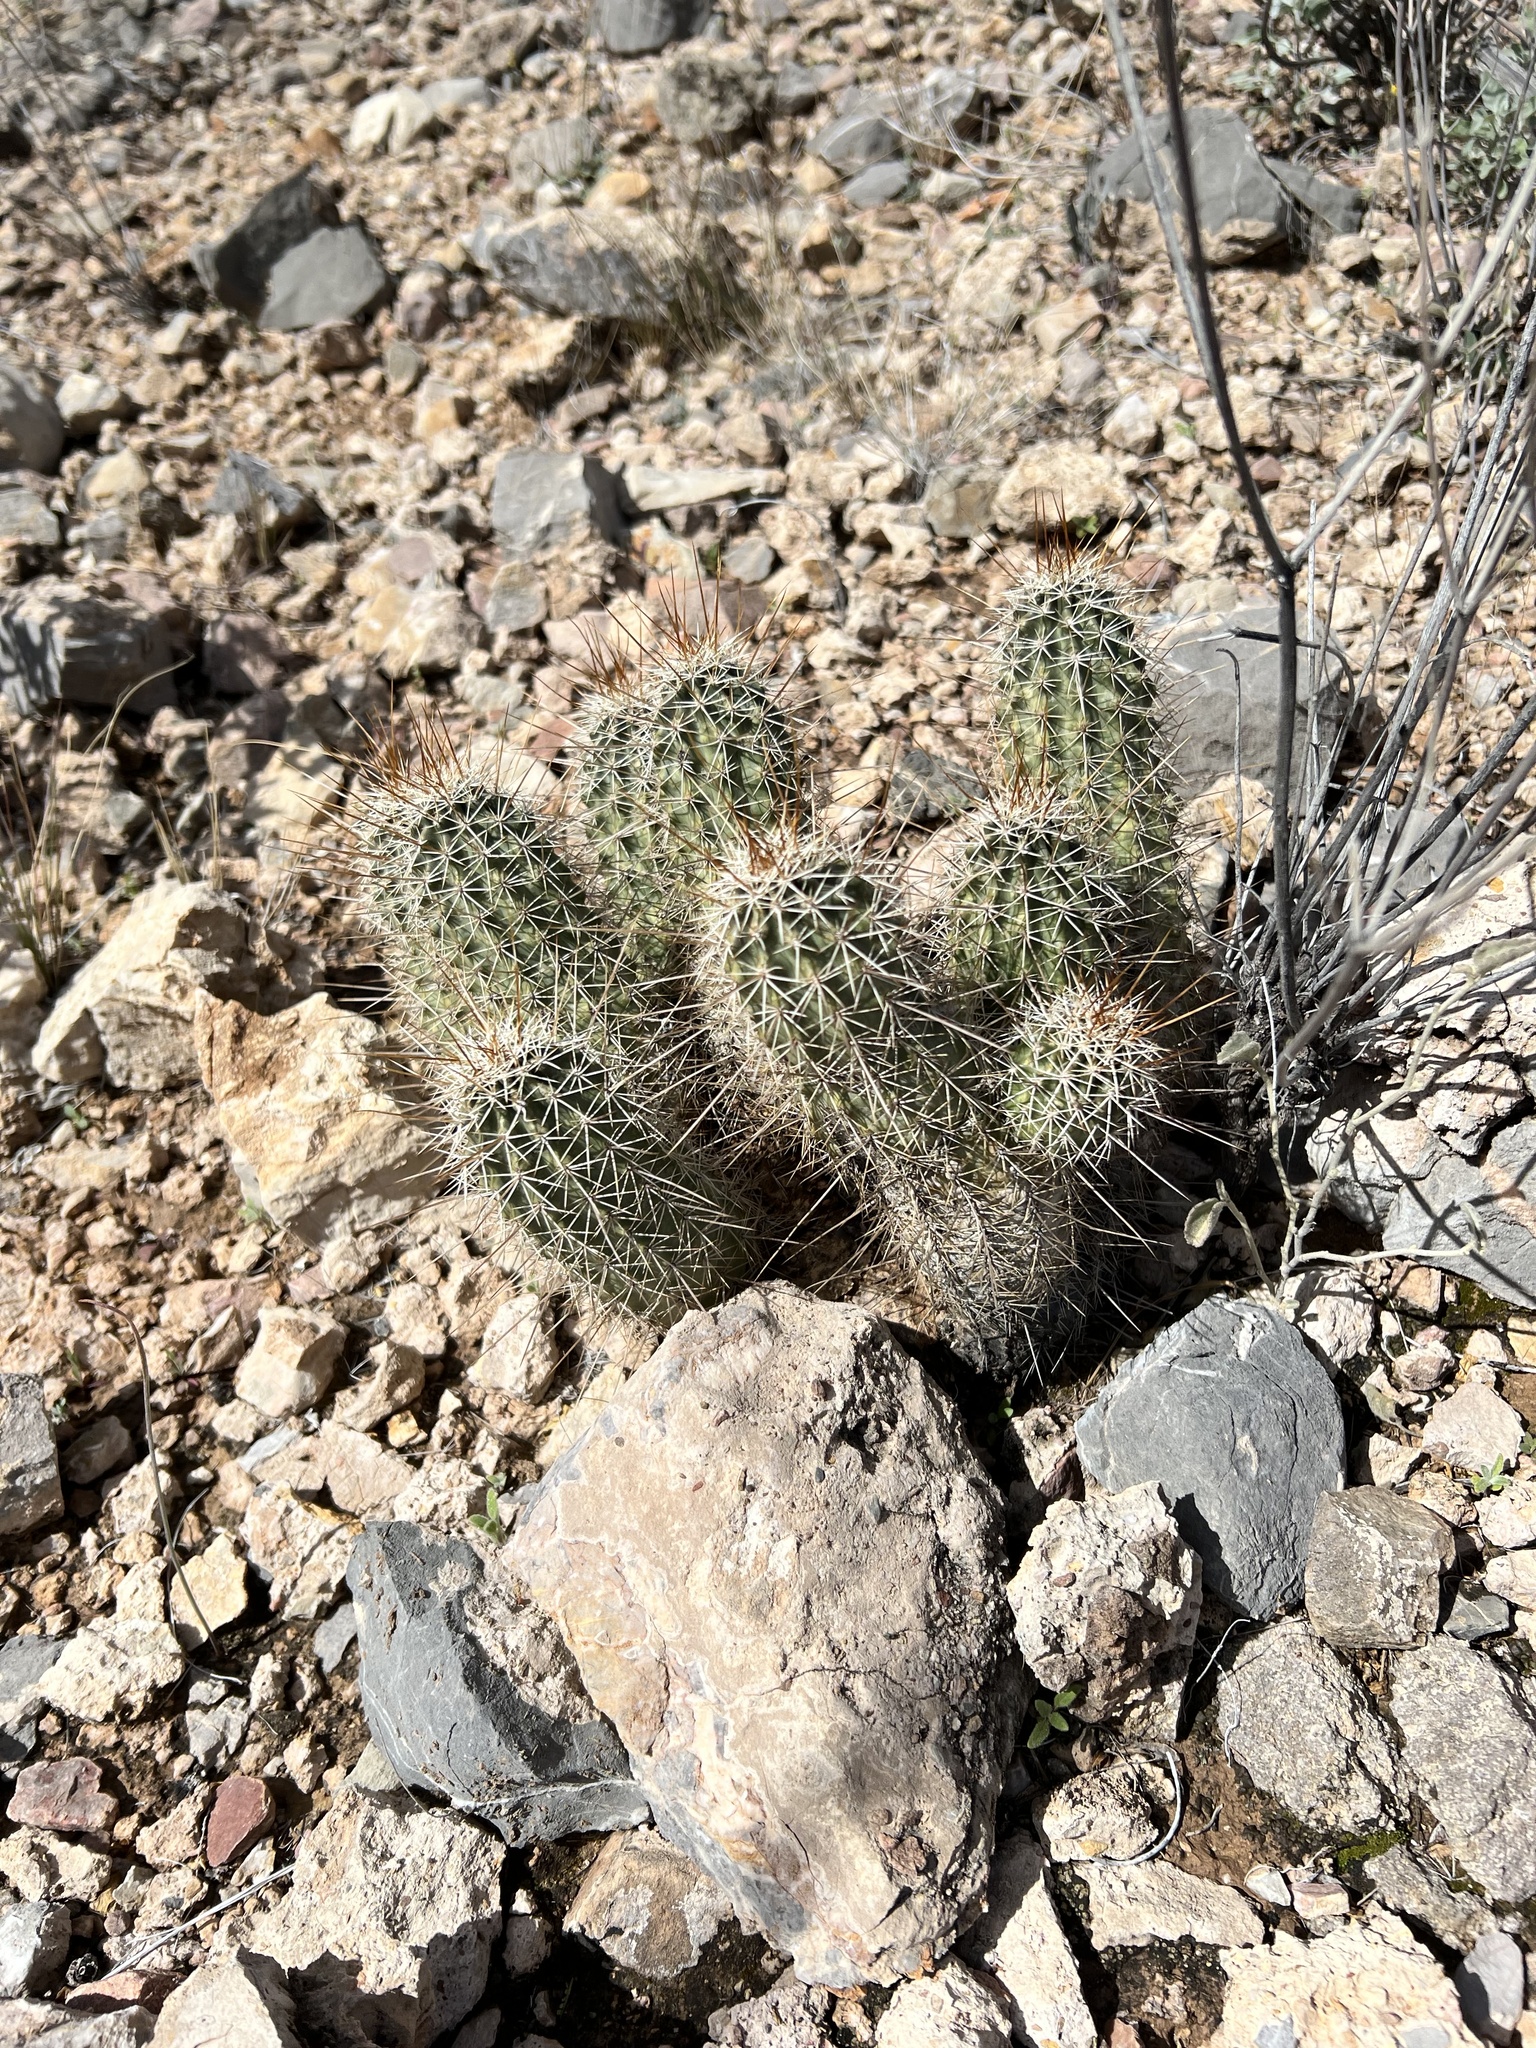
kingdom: Plantae
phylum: Tracheophyta
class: Magnoliopsida
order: Caryophyllales
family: Cactaceae
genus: Echinocereus
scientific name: Echinocereus fasciculatus
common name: Bundle hedgehog
